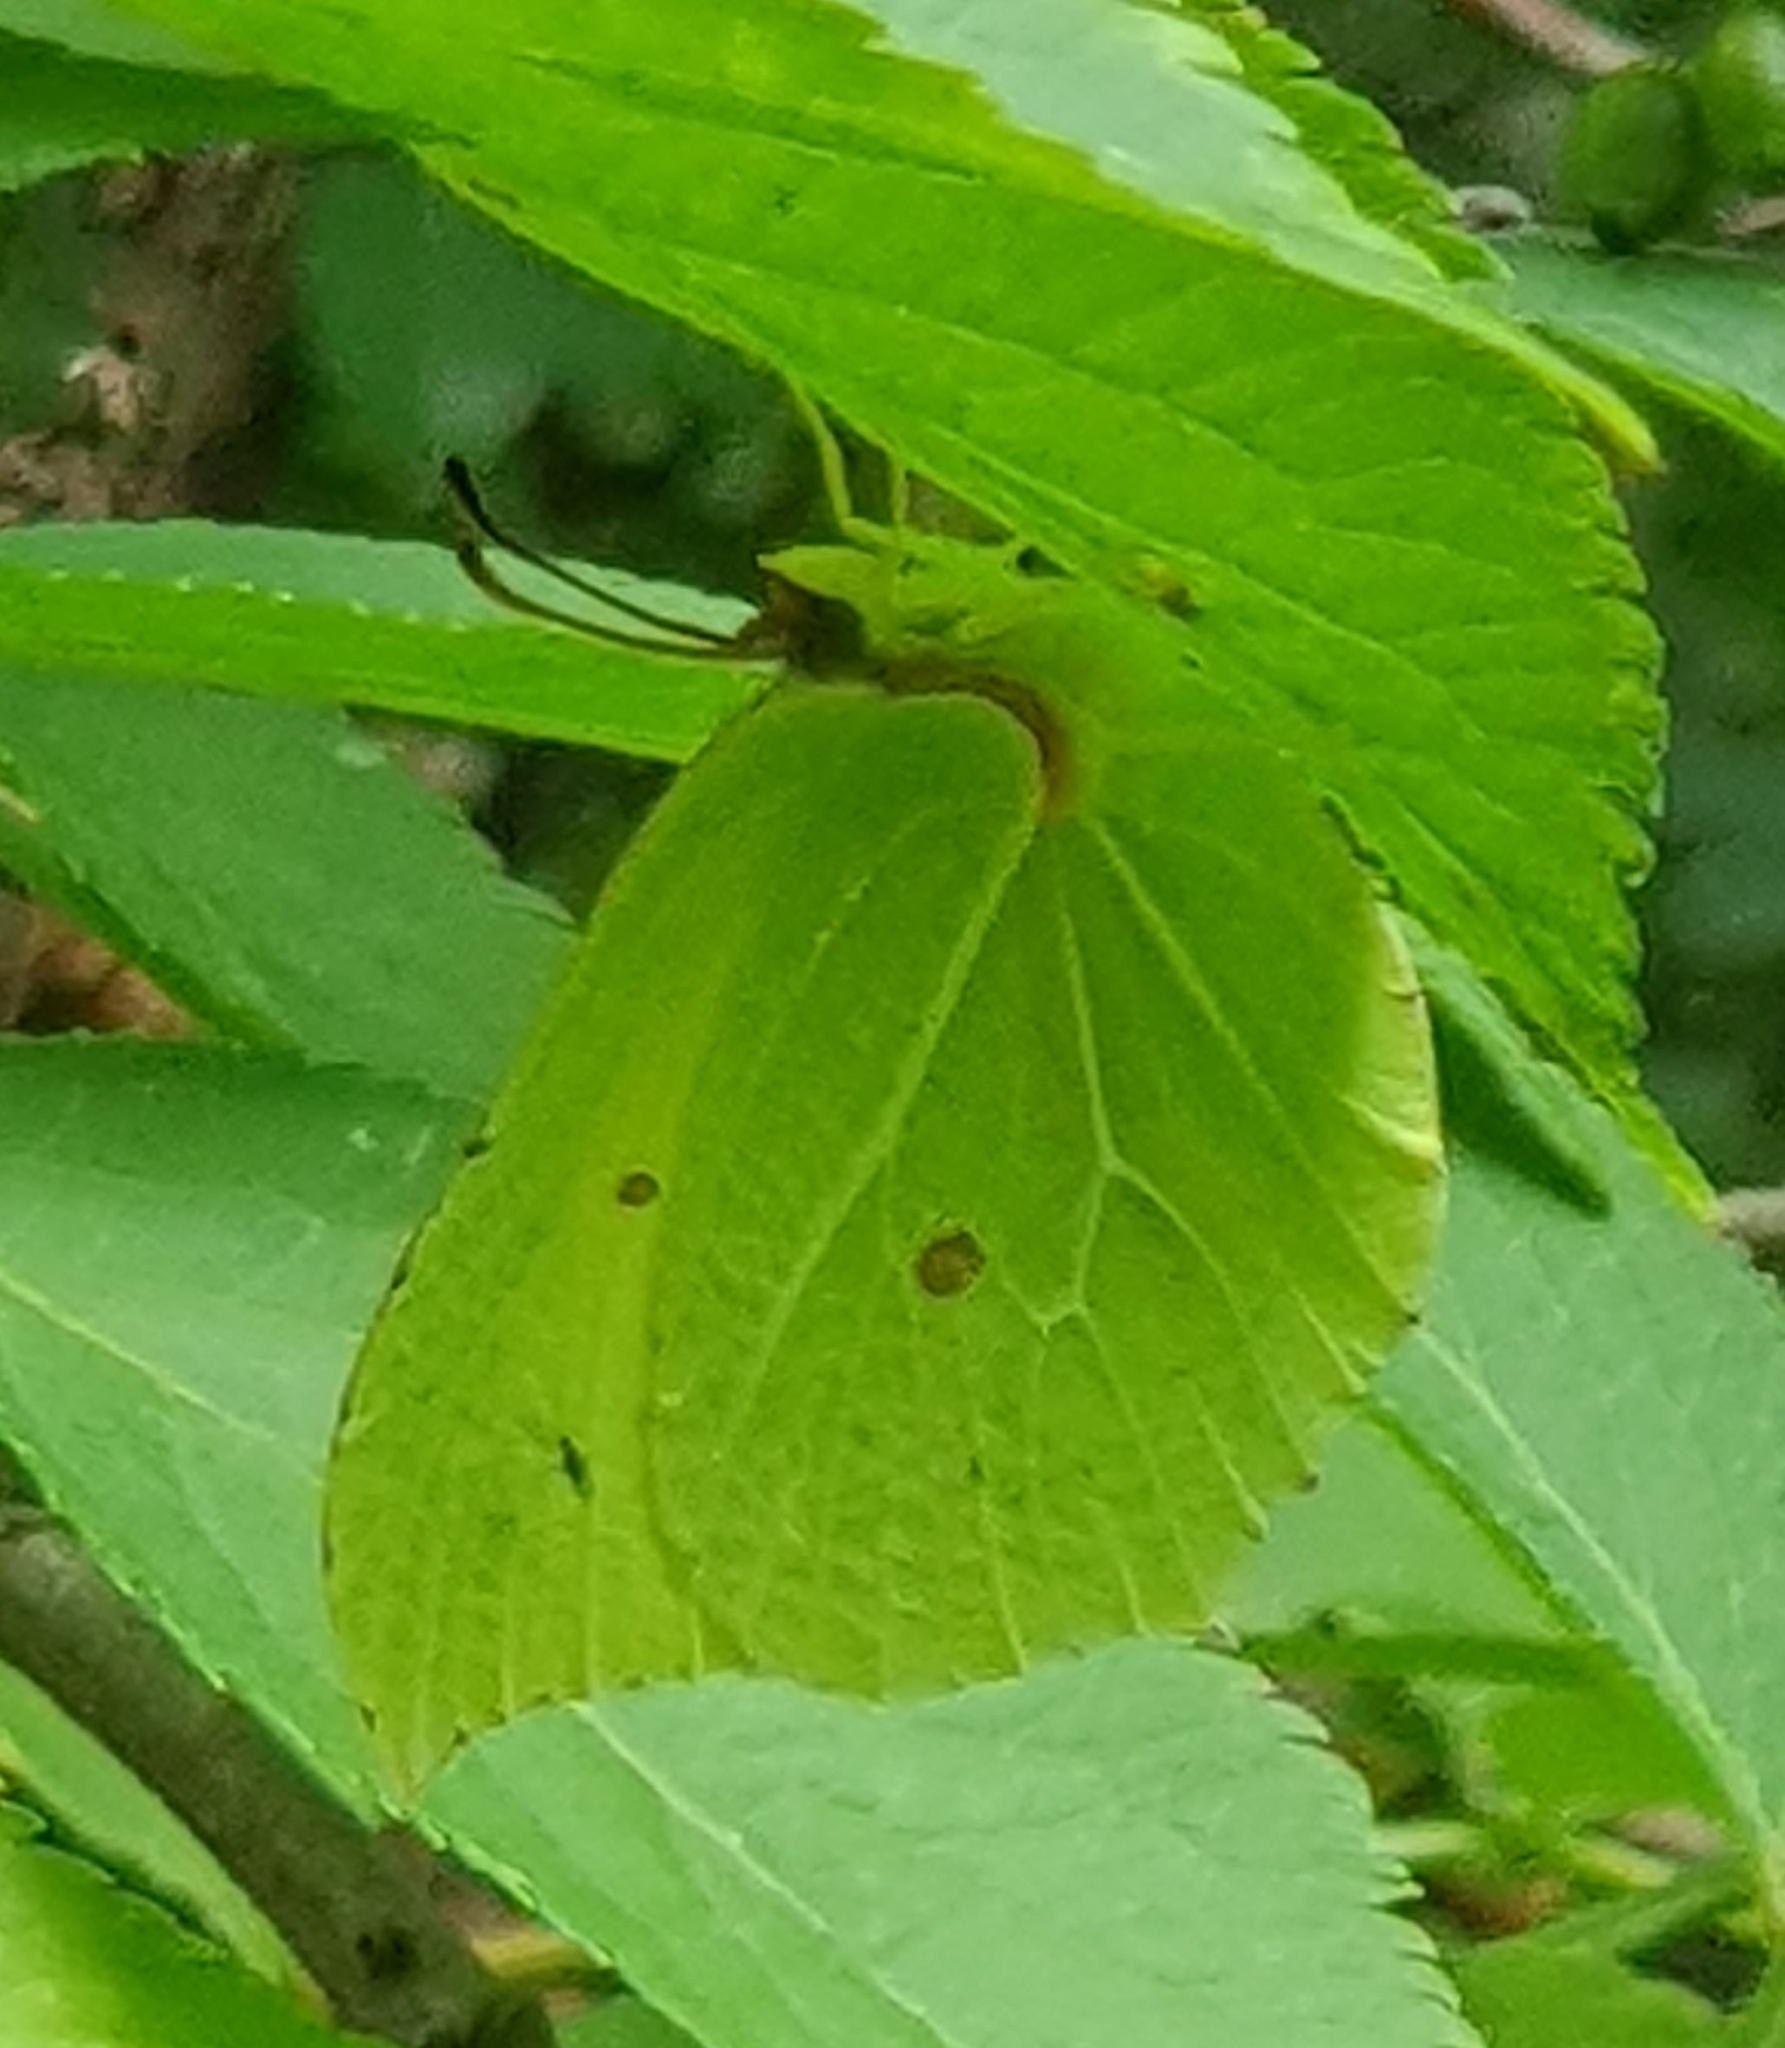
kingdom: Animalia
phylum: Arthropoda
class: Insecta
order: Lepidoptera
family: Pieridae
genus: Gonepteryx
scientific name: Gonepteryx rhamni
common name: Brimstone
